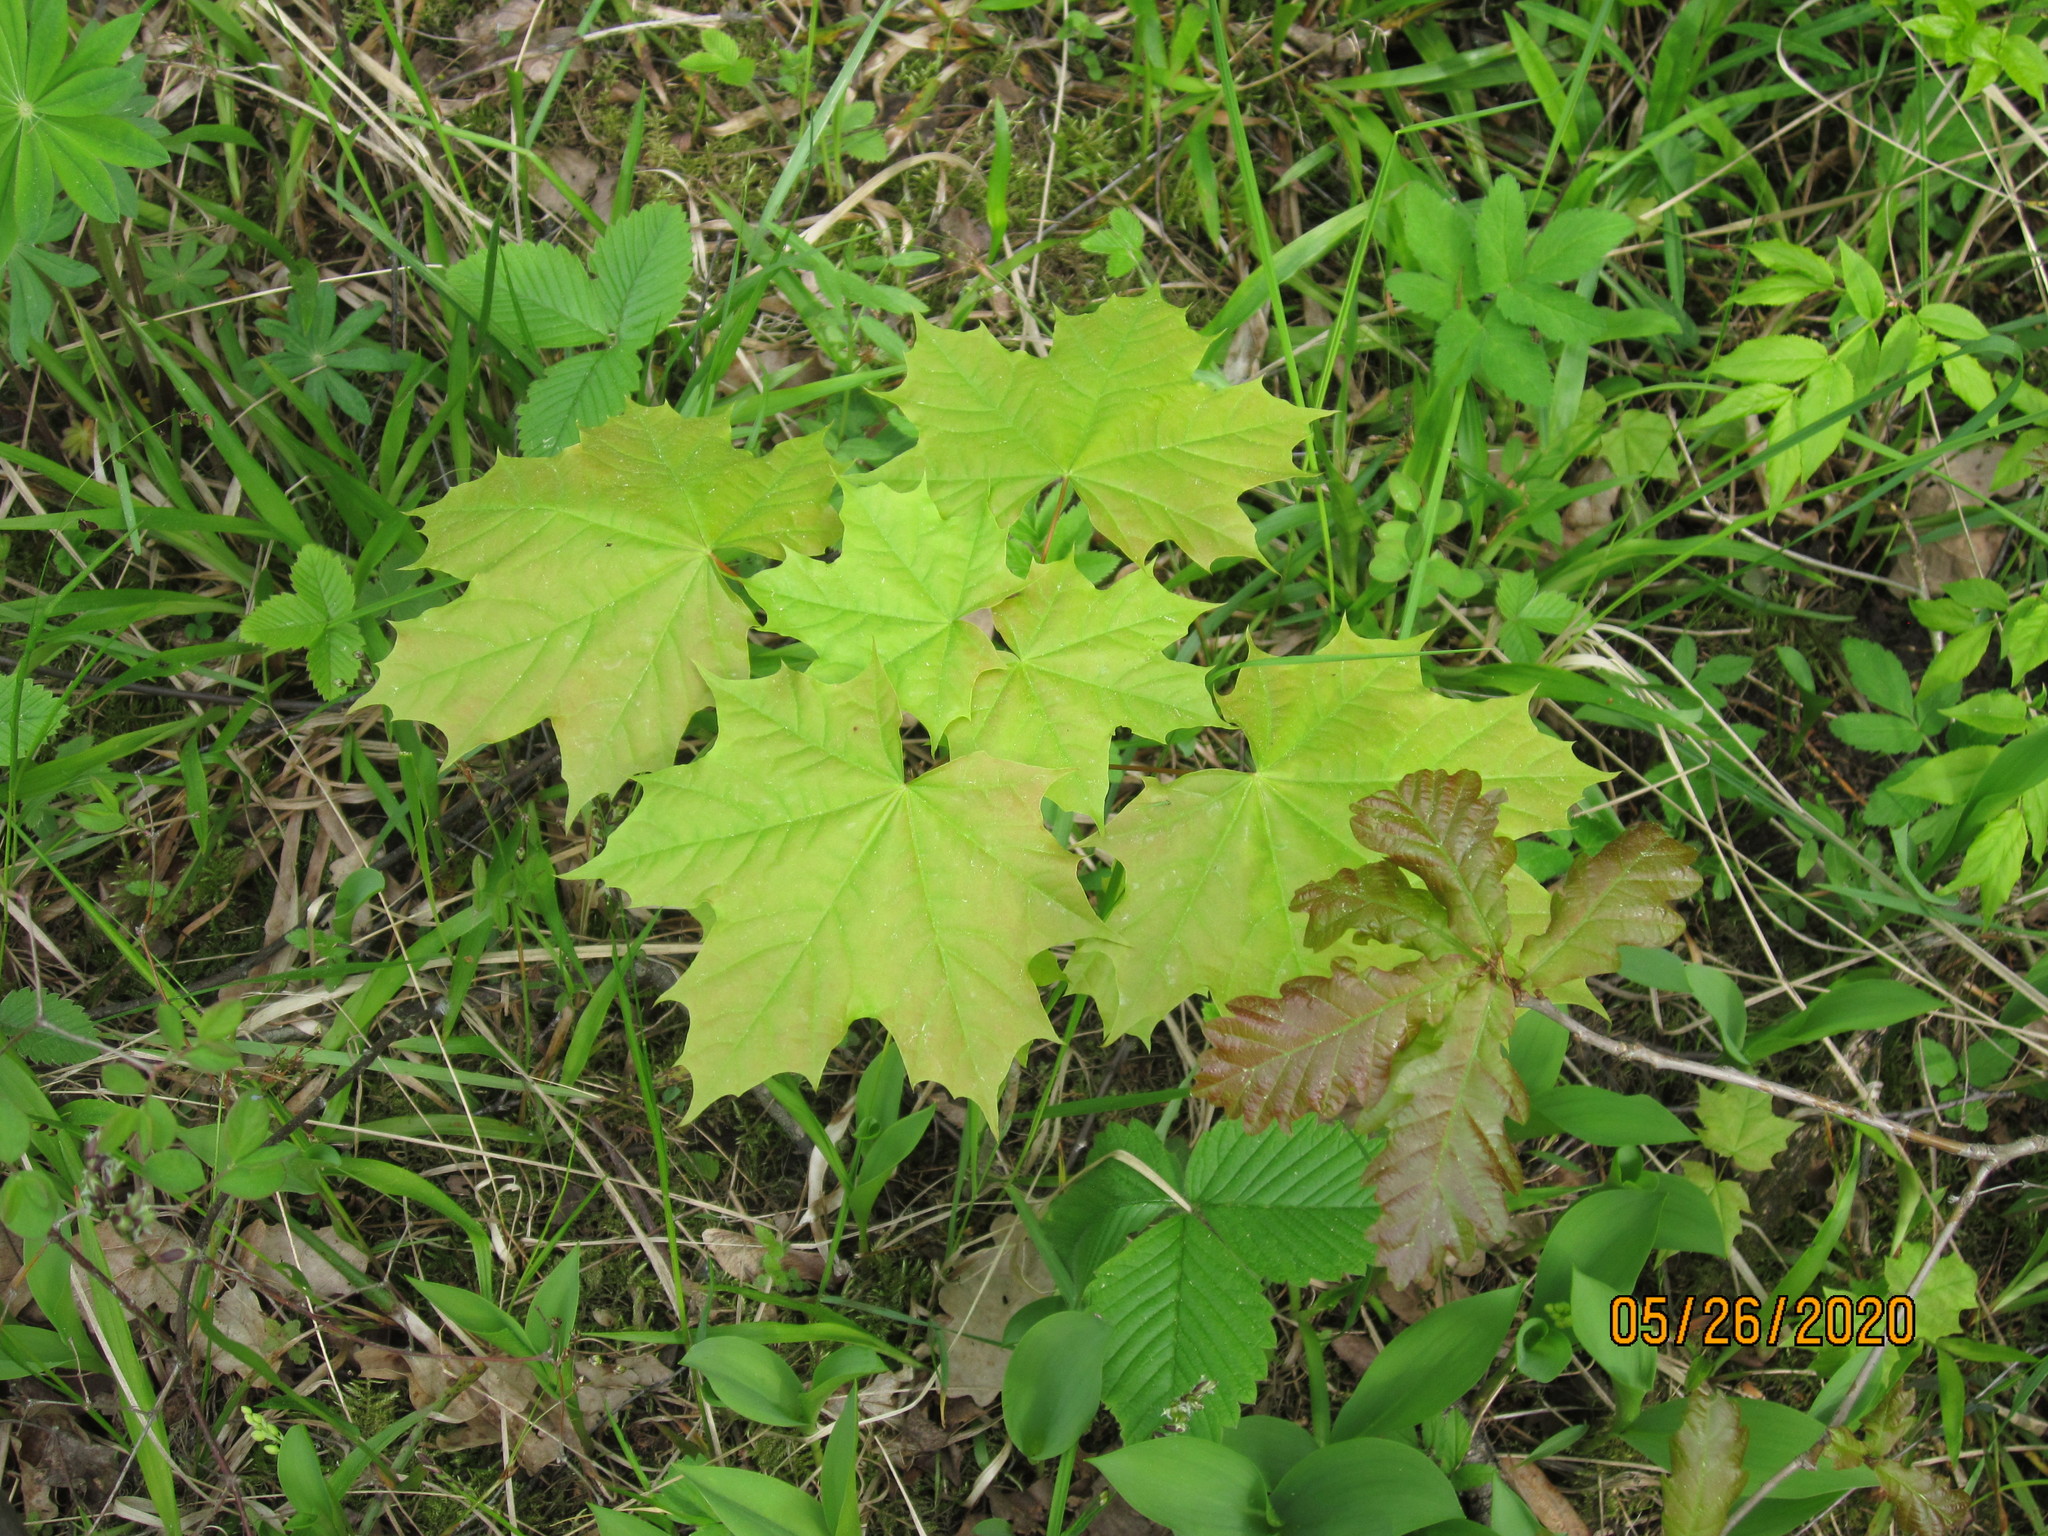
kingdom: Plantae
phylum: Tracheophyta
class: Magnoliopsida
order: Sapindales
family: Sapindaceae
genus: Acer
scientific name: Acer platanoides
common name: Norway maple
